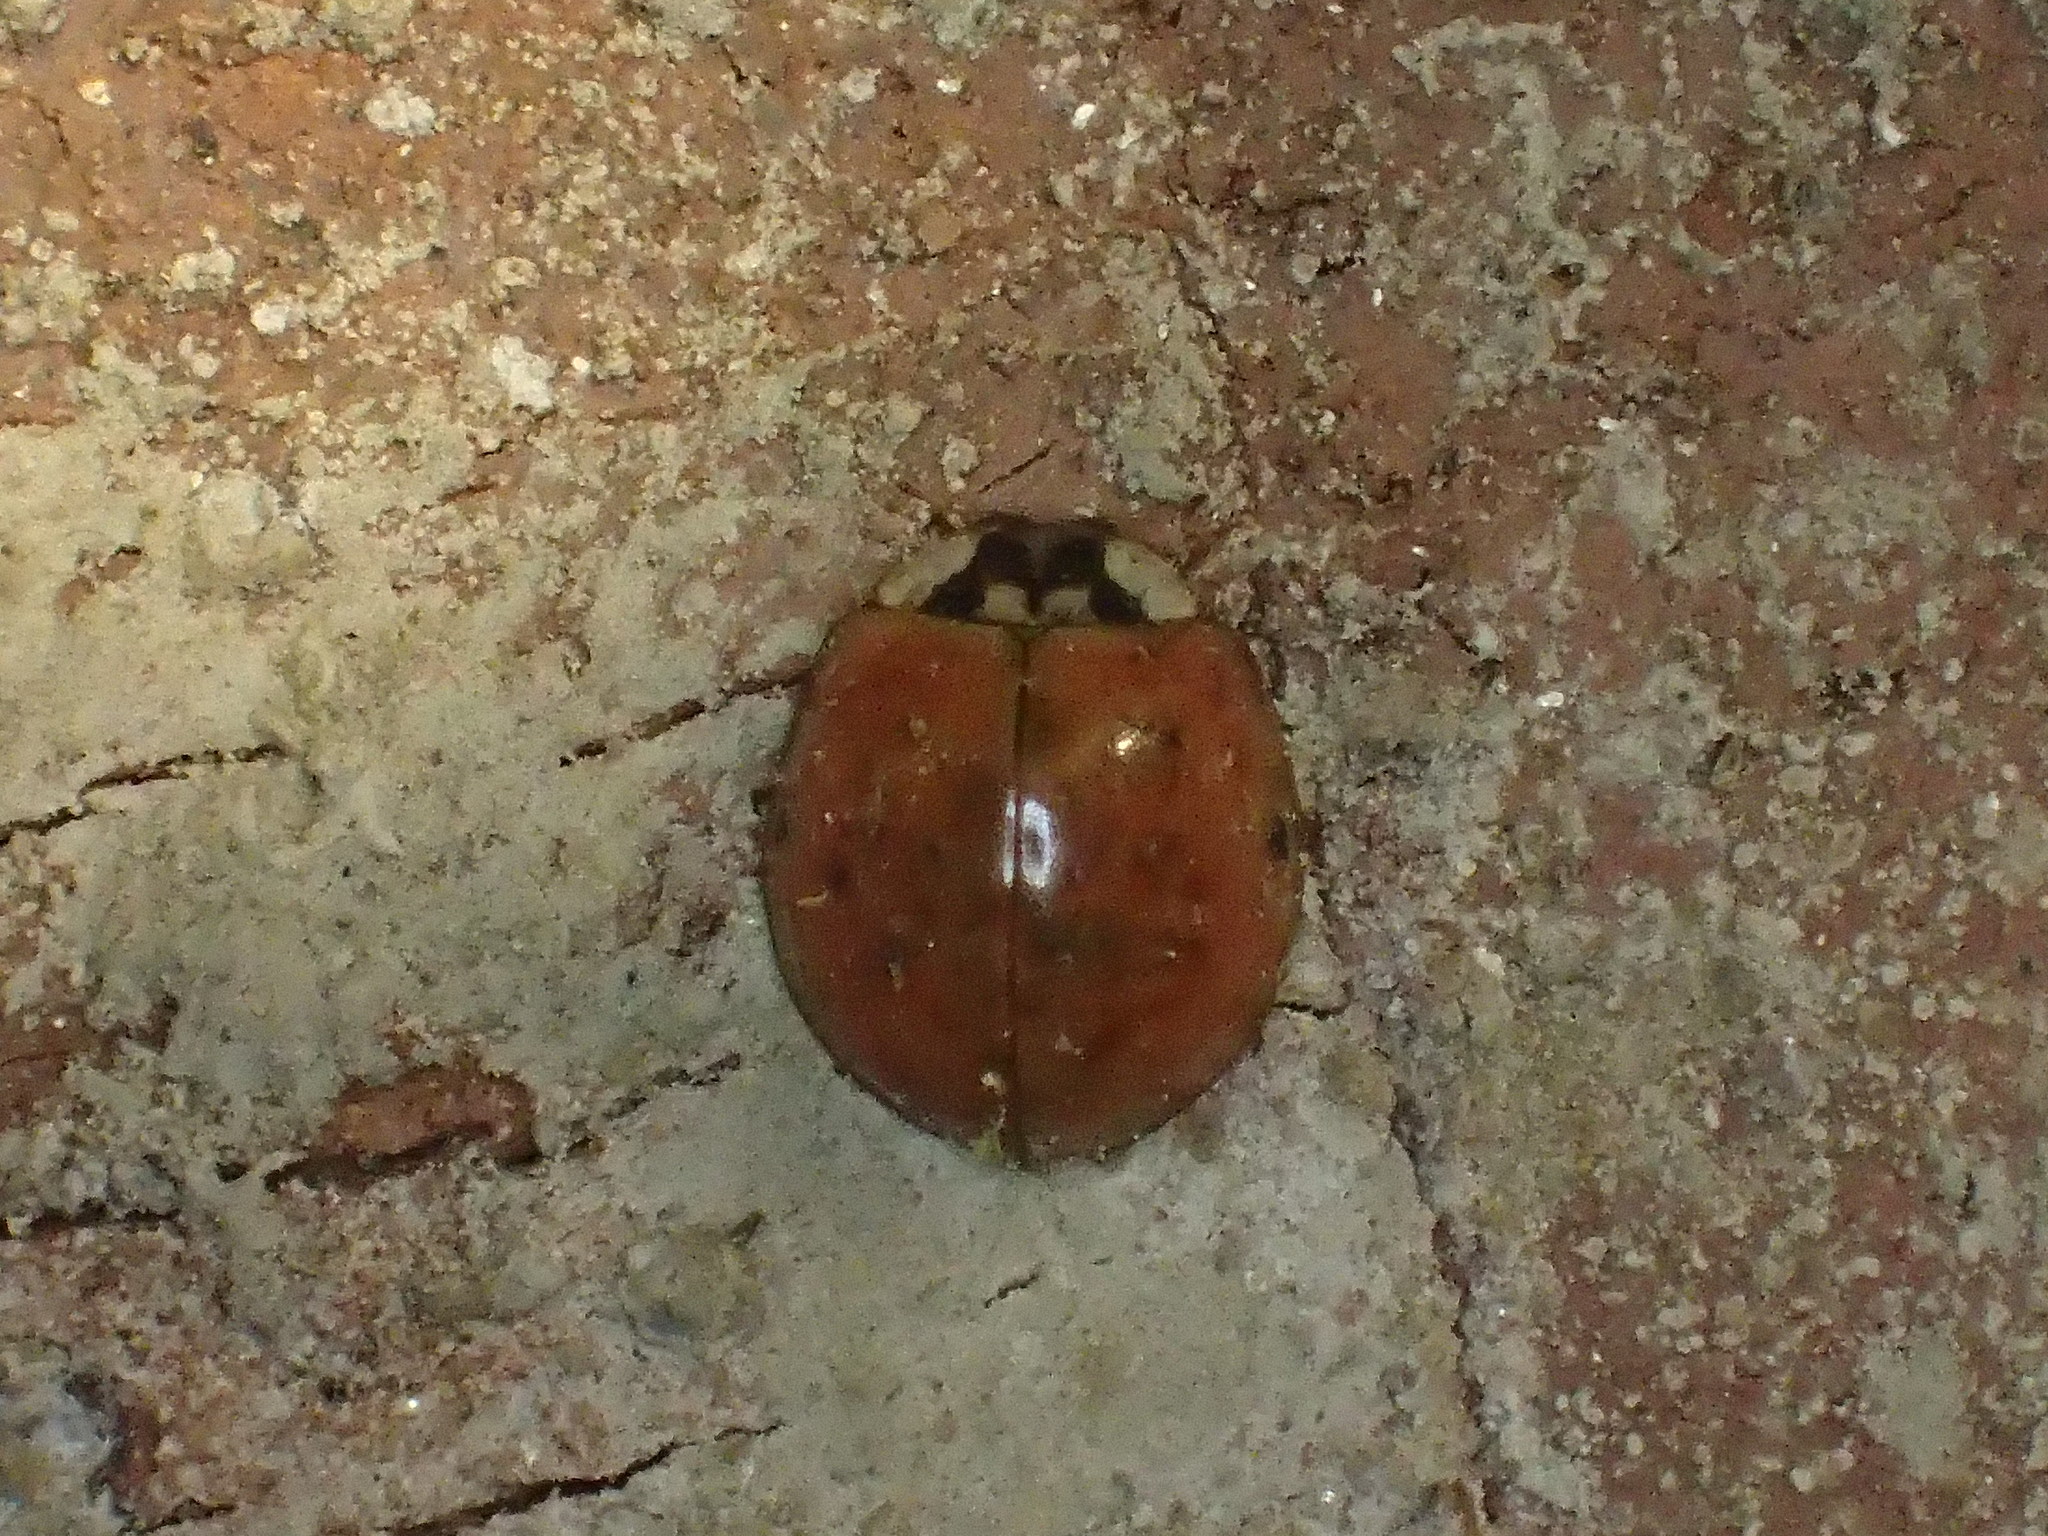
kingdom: Animalia
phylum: Arthropoda
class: Insecta
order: Coleoptera
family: Coccinellidae
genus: Harmonia
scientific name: Harmonia axyridis
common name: Harlequin ladybird
